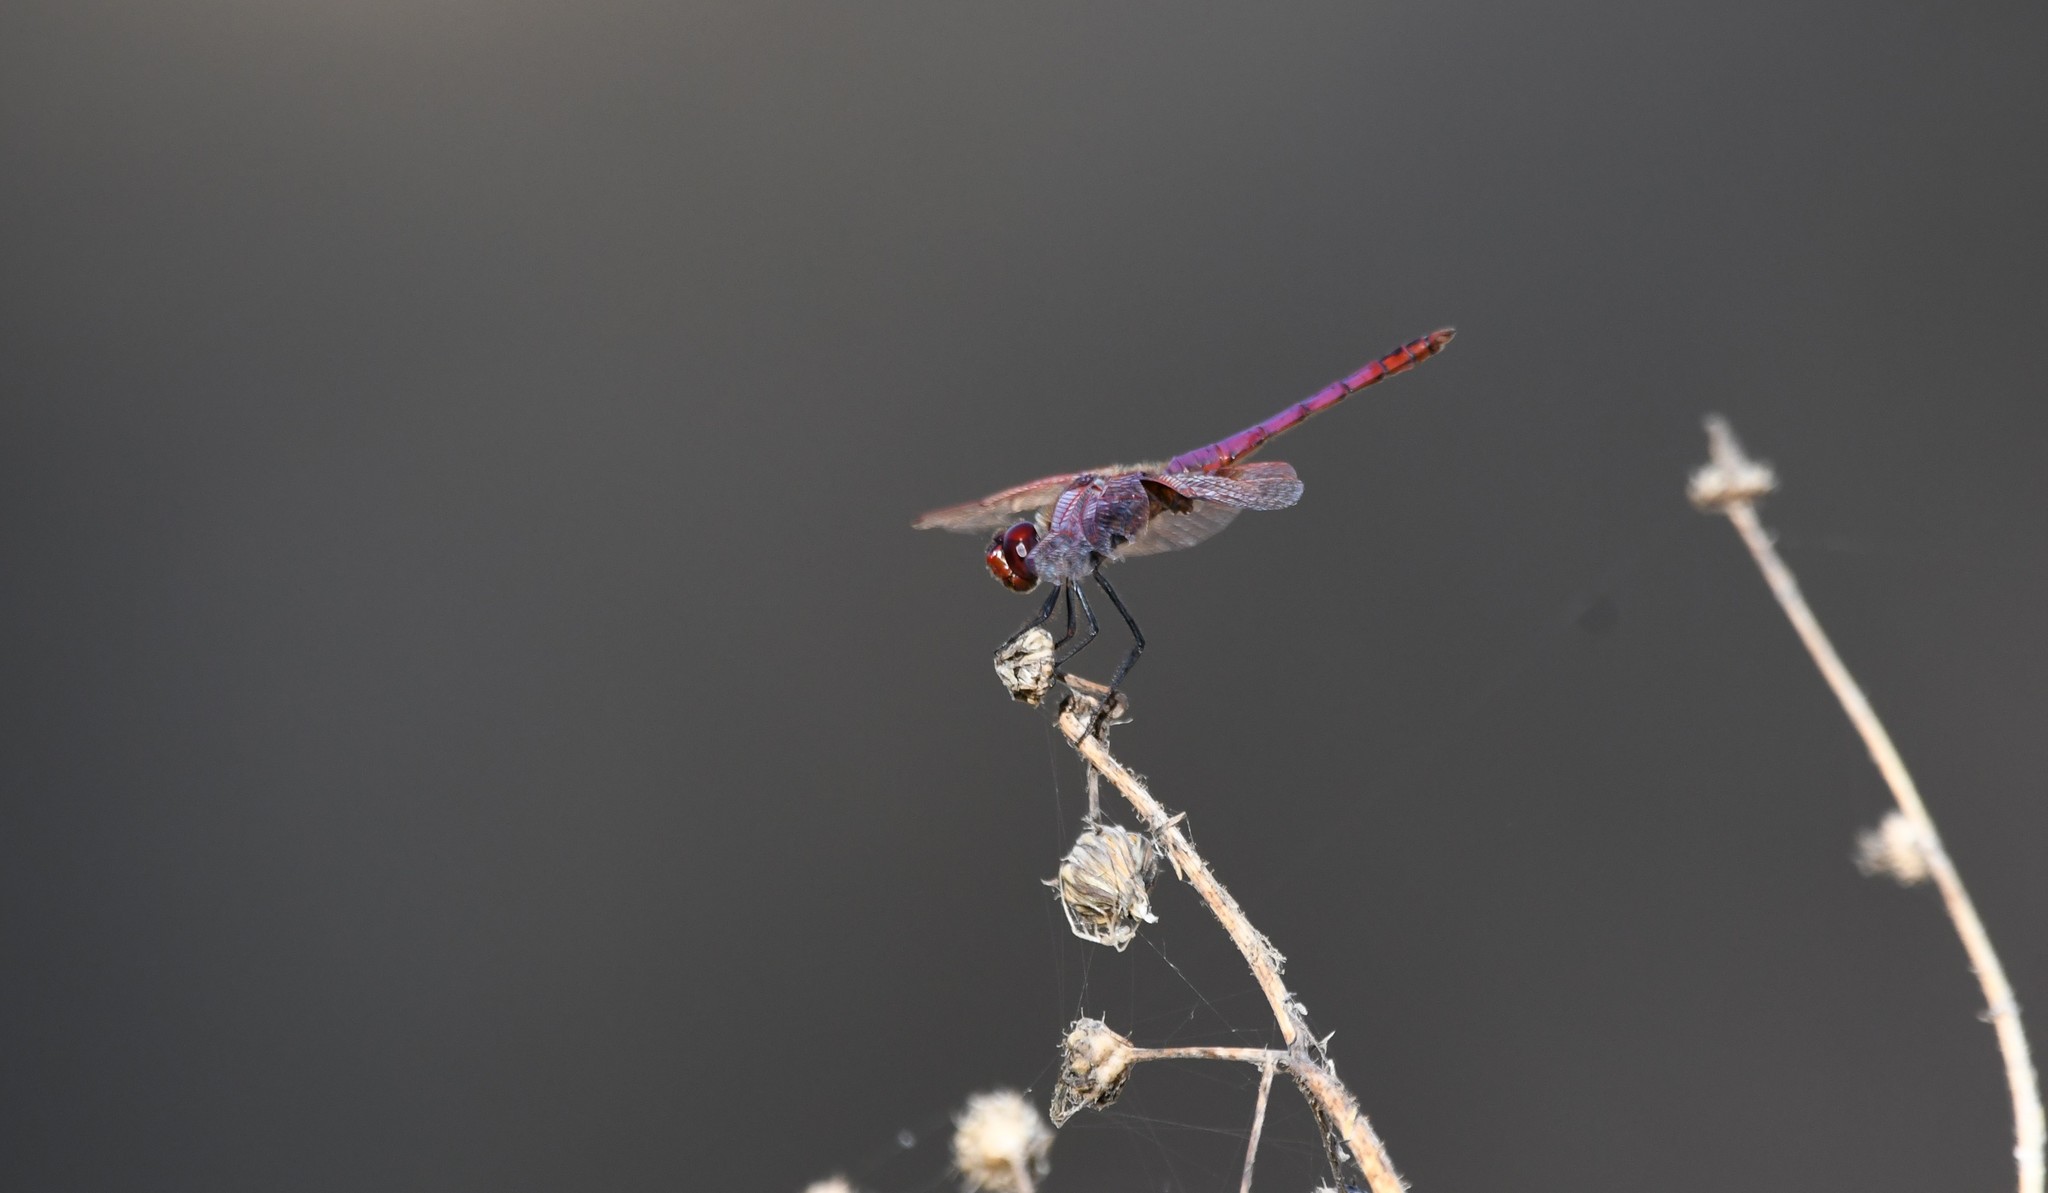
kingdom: Animalia
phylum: Arthropoda
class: Insecta
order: Odonata
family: Libellulidae
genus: Trithemis
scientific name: Trithemis annulata
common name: Violet dropwing
